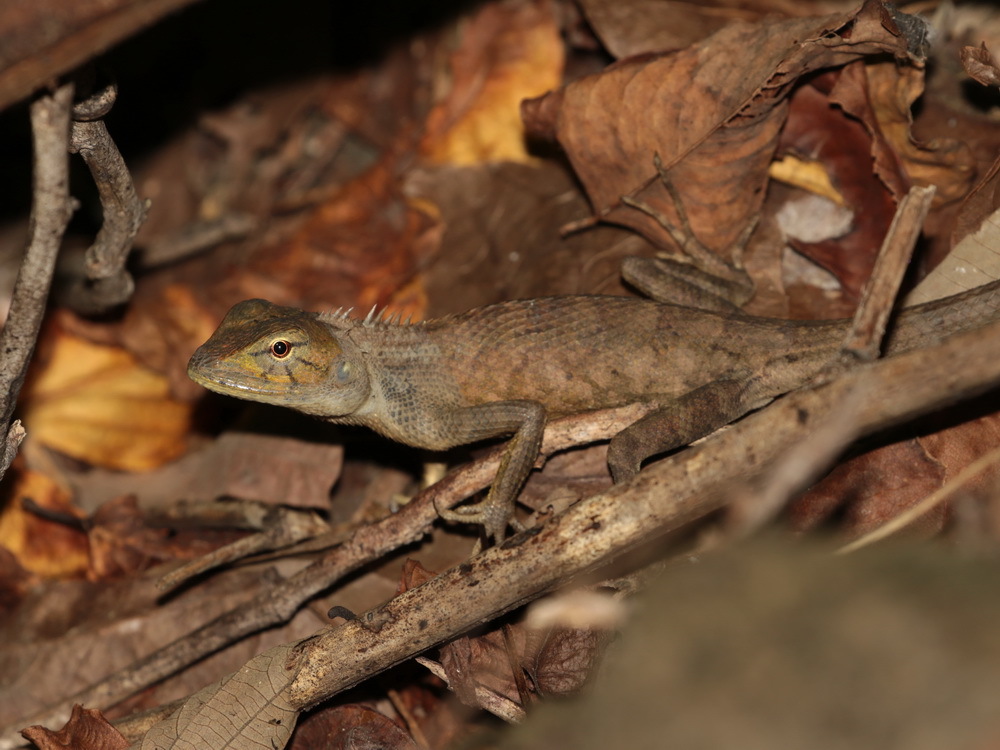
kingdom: Animalia
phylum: Chordata
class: Squamata
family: Agamidae
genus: Calotes
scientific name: Calotes versicolor
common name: Oriental garden lizard
